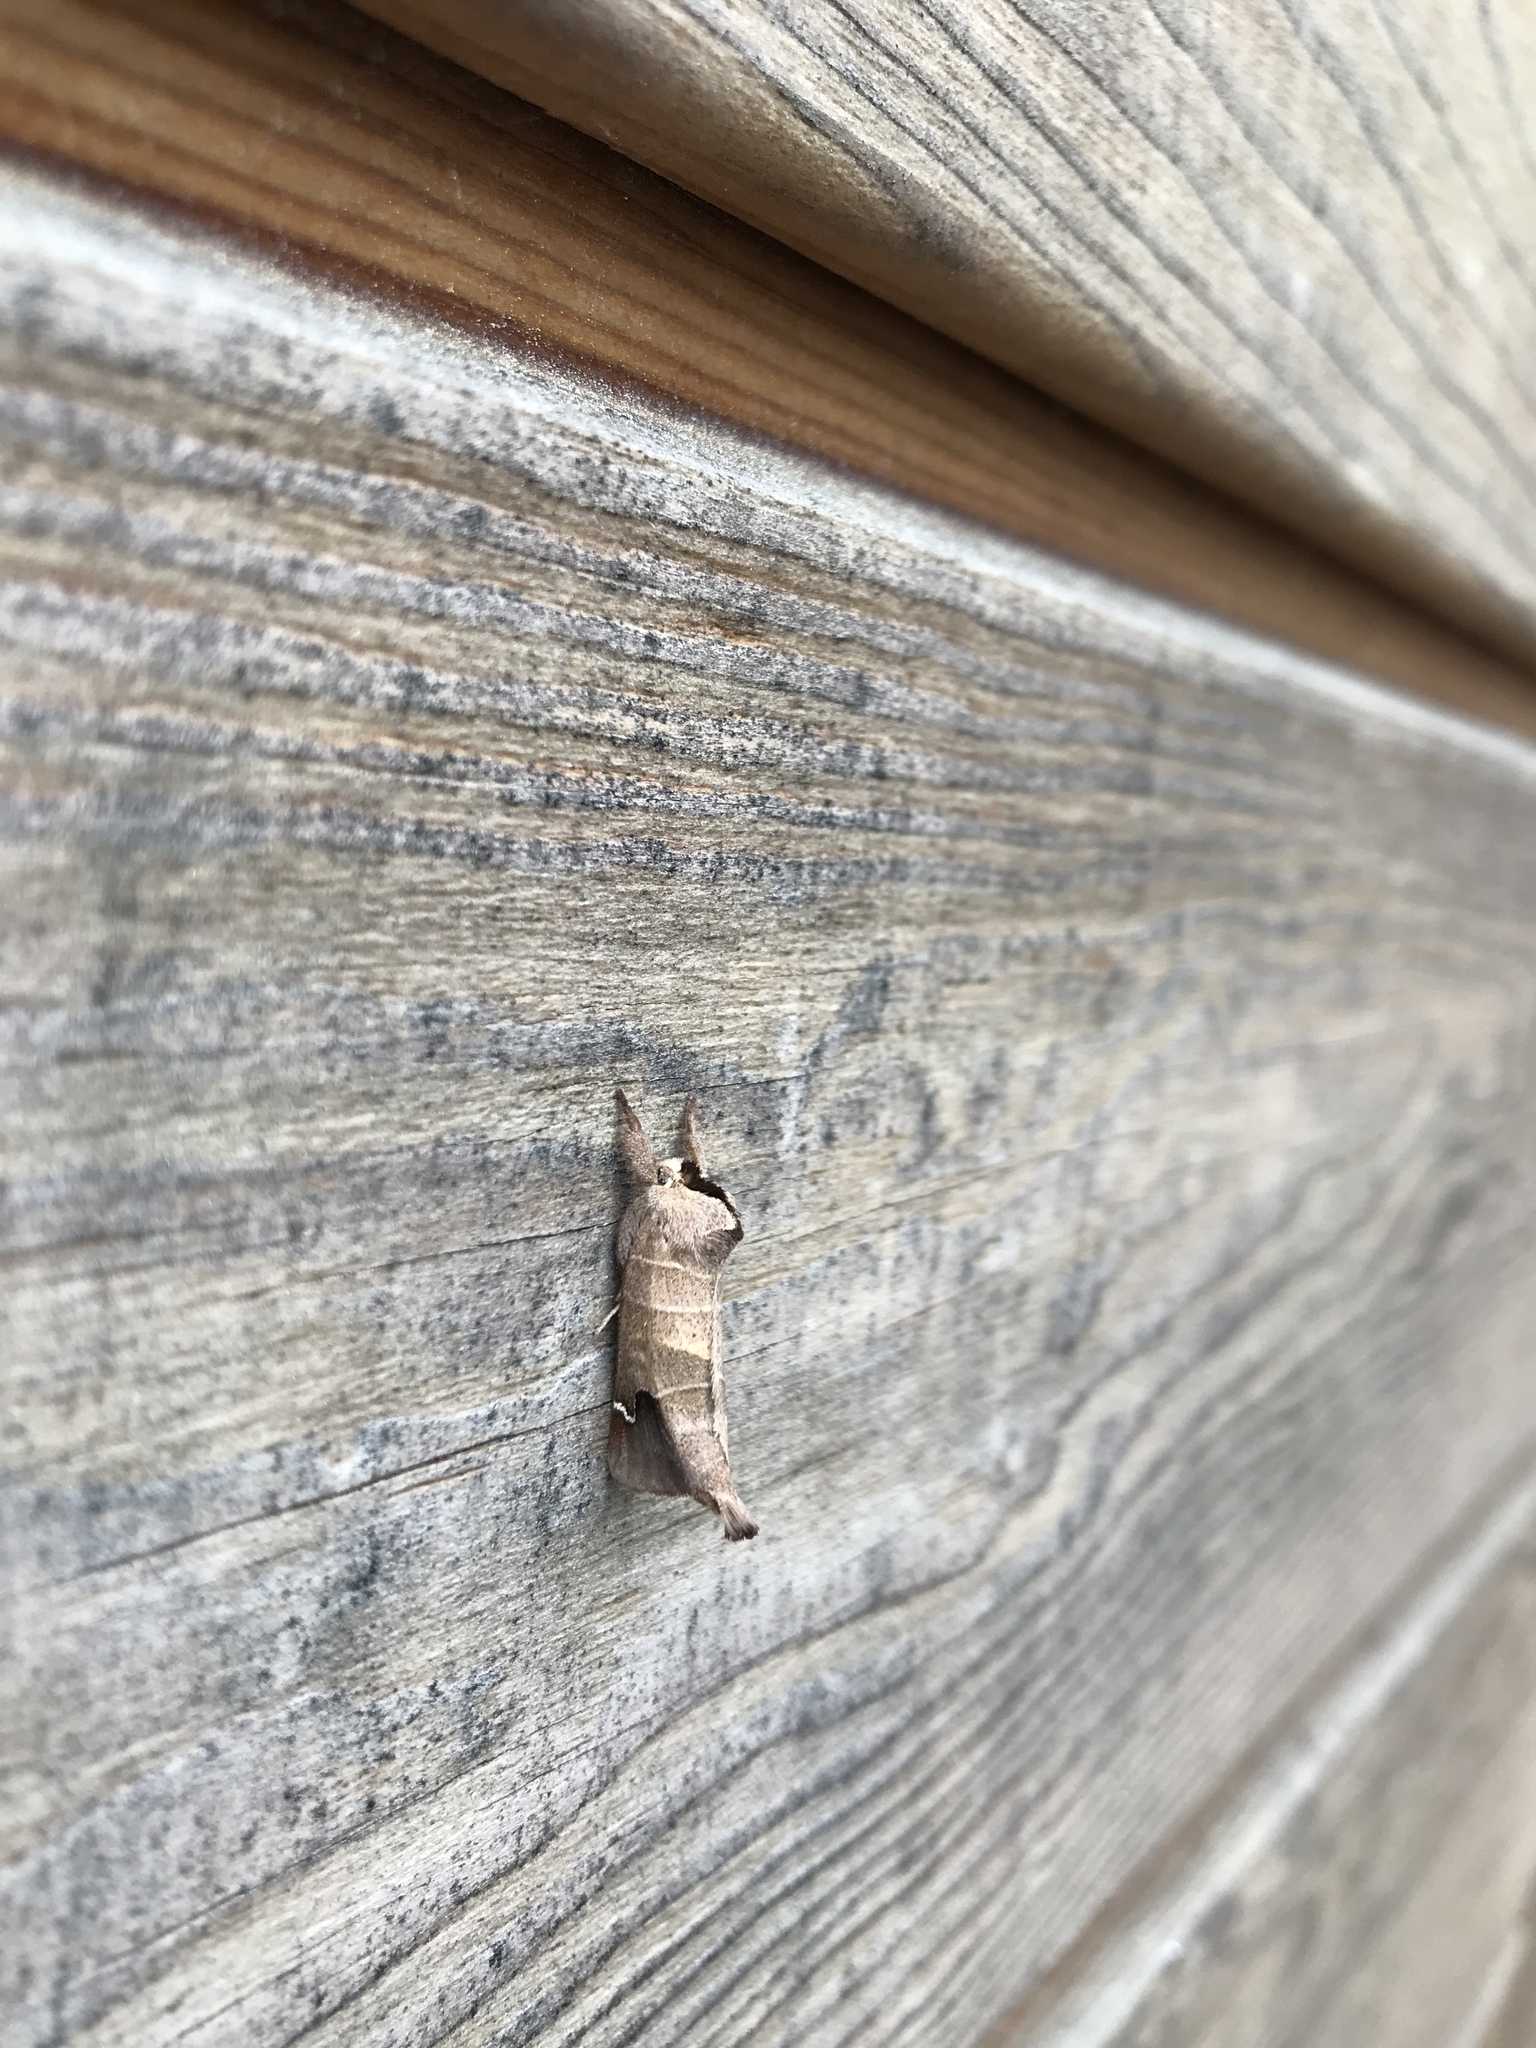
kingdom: Animalia
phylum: Arthropoda
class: Insecta
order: Lepidoptera
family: Notodontidae
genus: Clostera
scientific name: Clostera albosigma
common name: Sigmoid prominent
